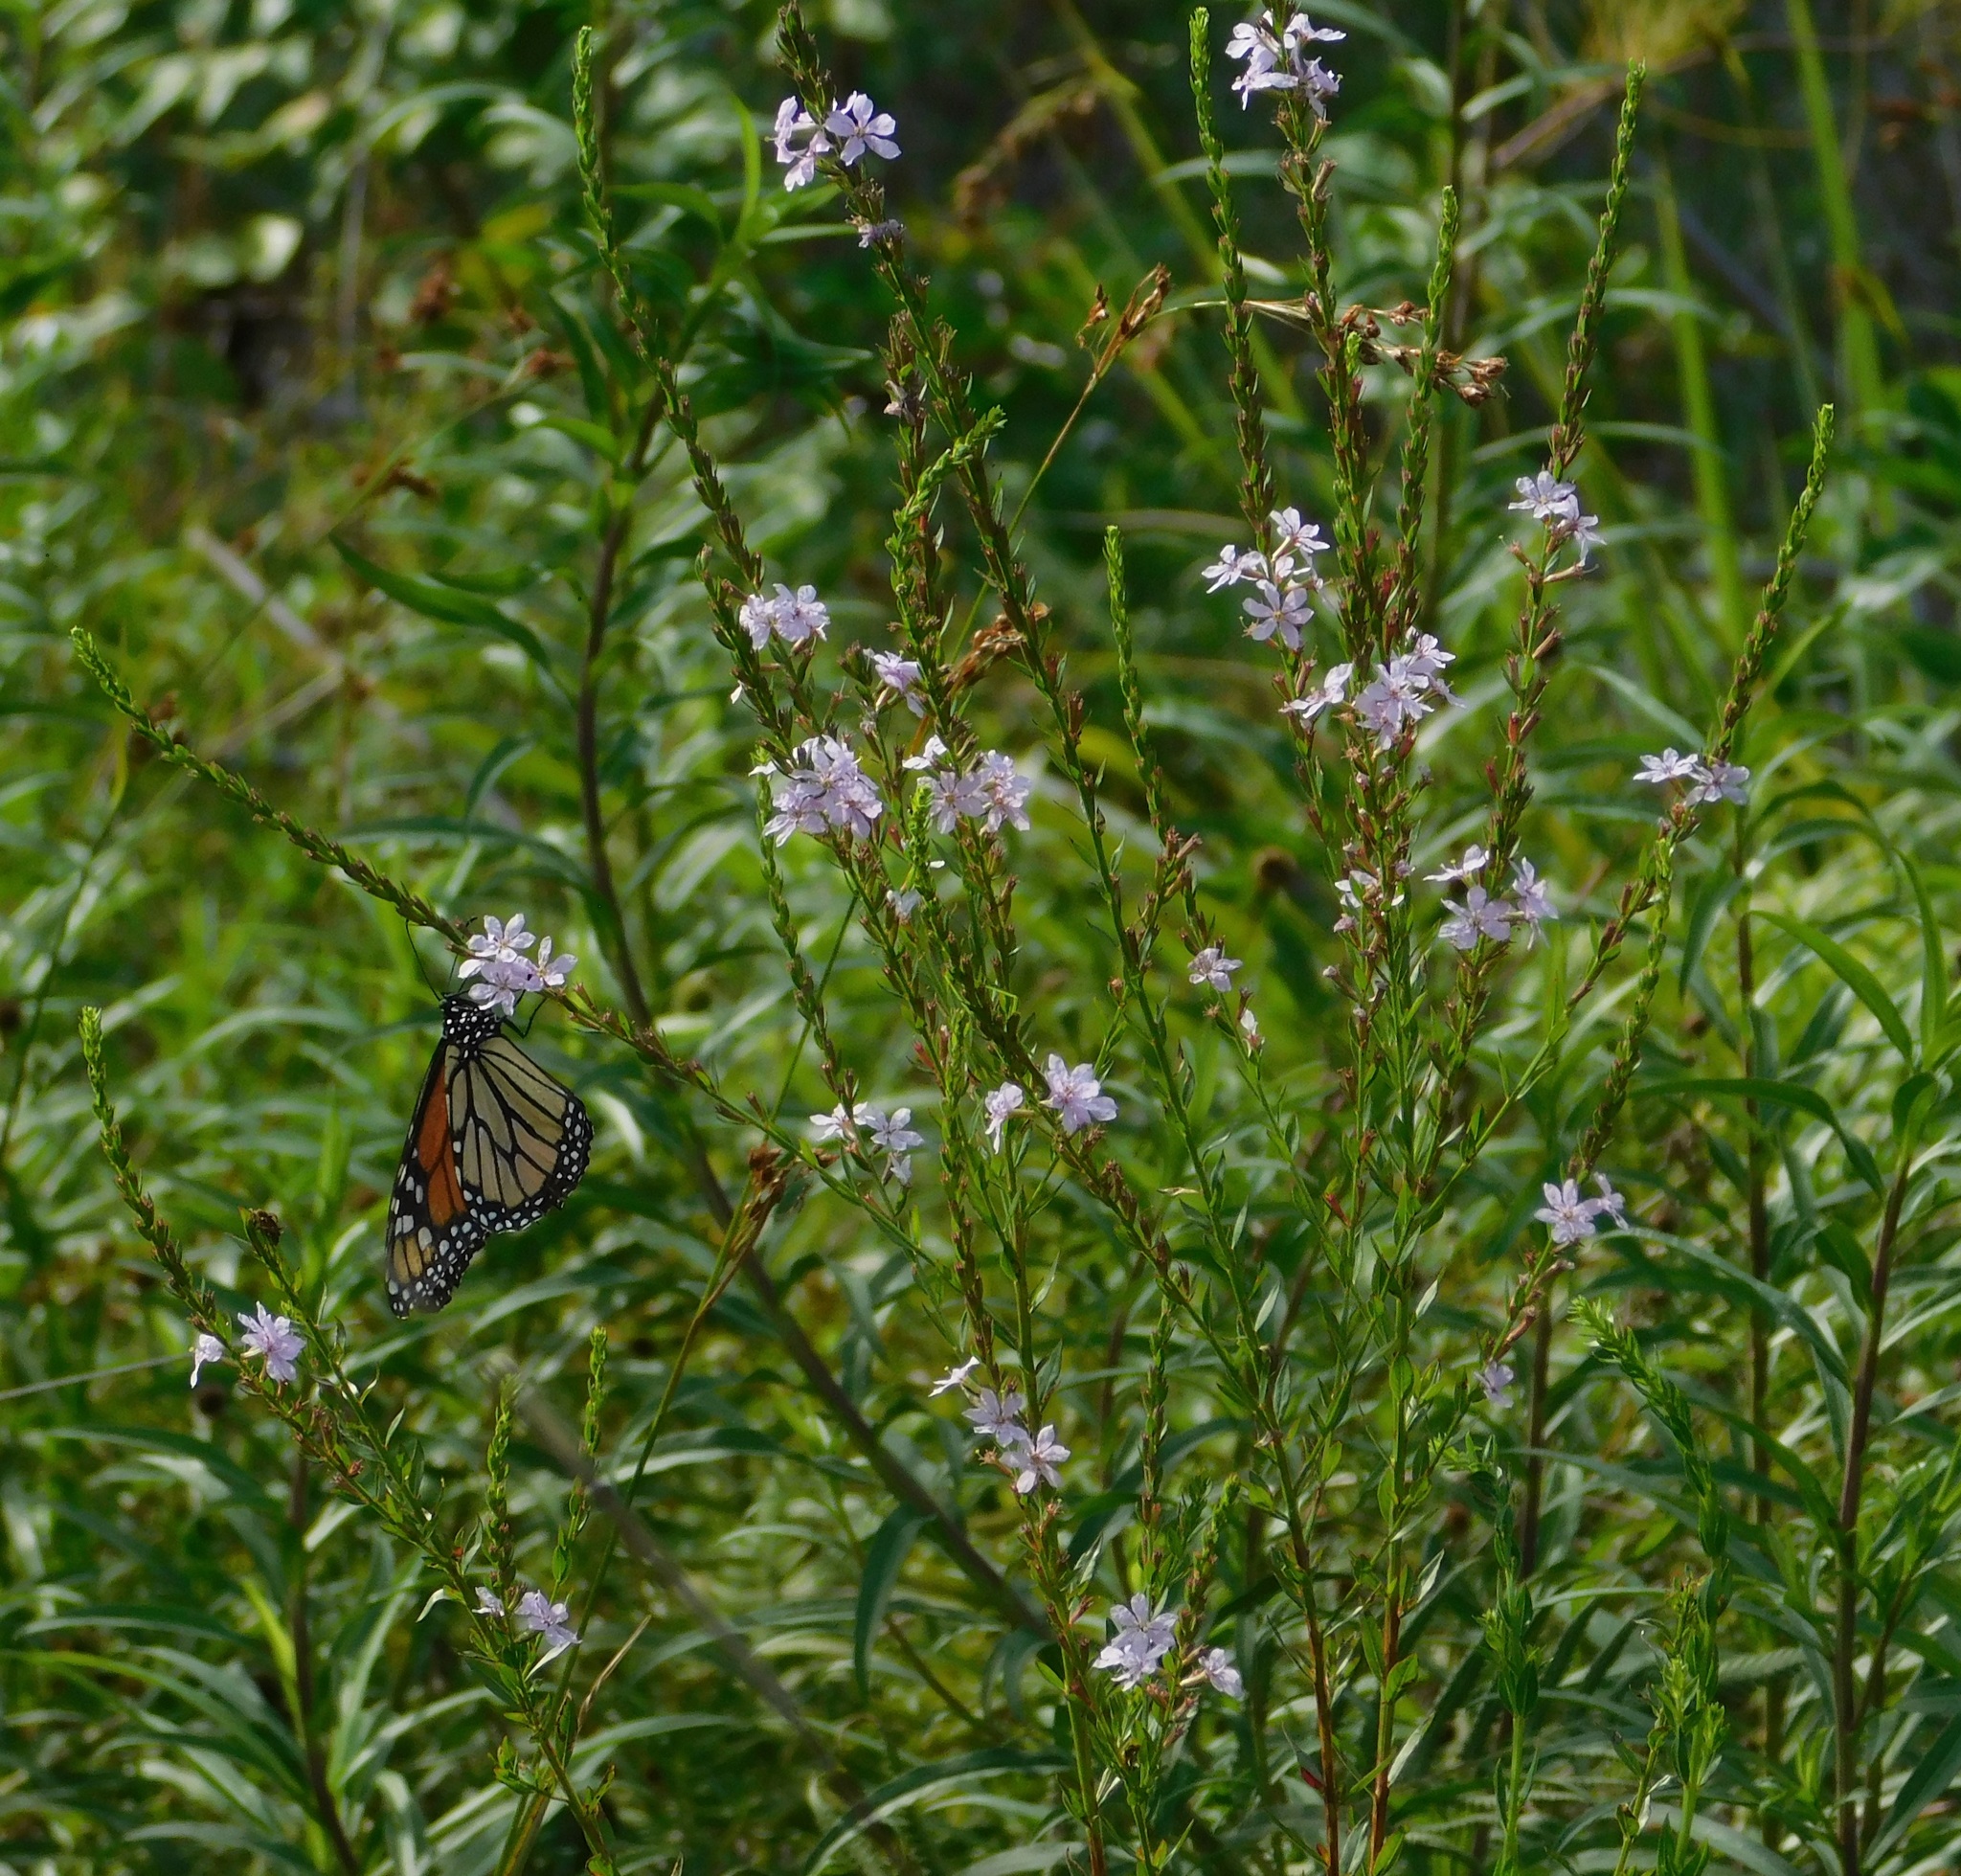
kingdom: Animalia
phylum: Arthropoda
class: Insecta
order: Lepidoptera
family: Nymphalidae
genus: Danaus
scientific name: Danaus plexippus
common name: Monarch
